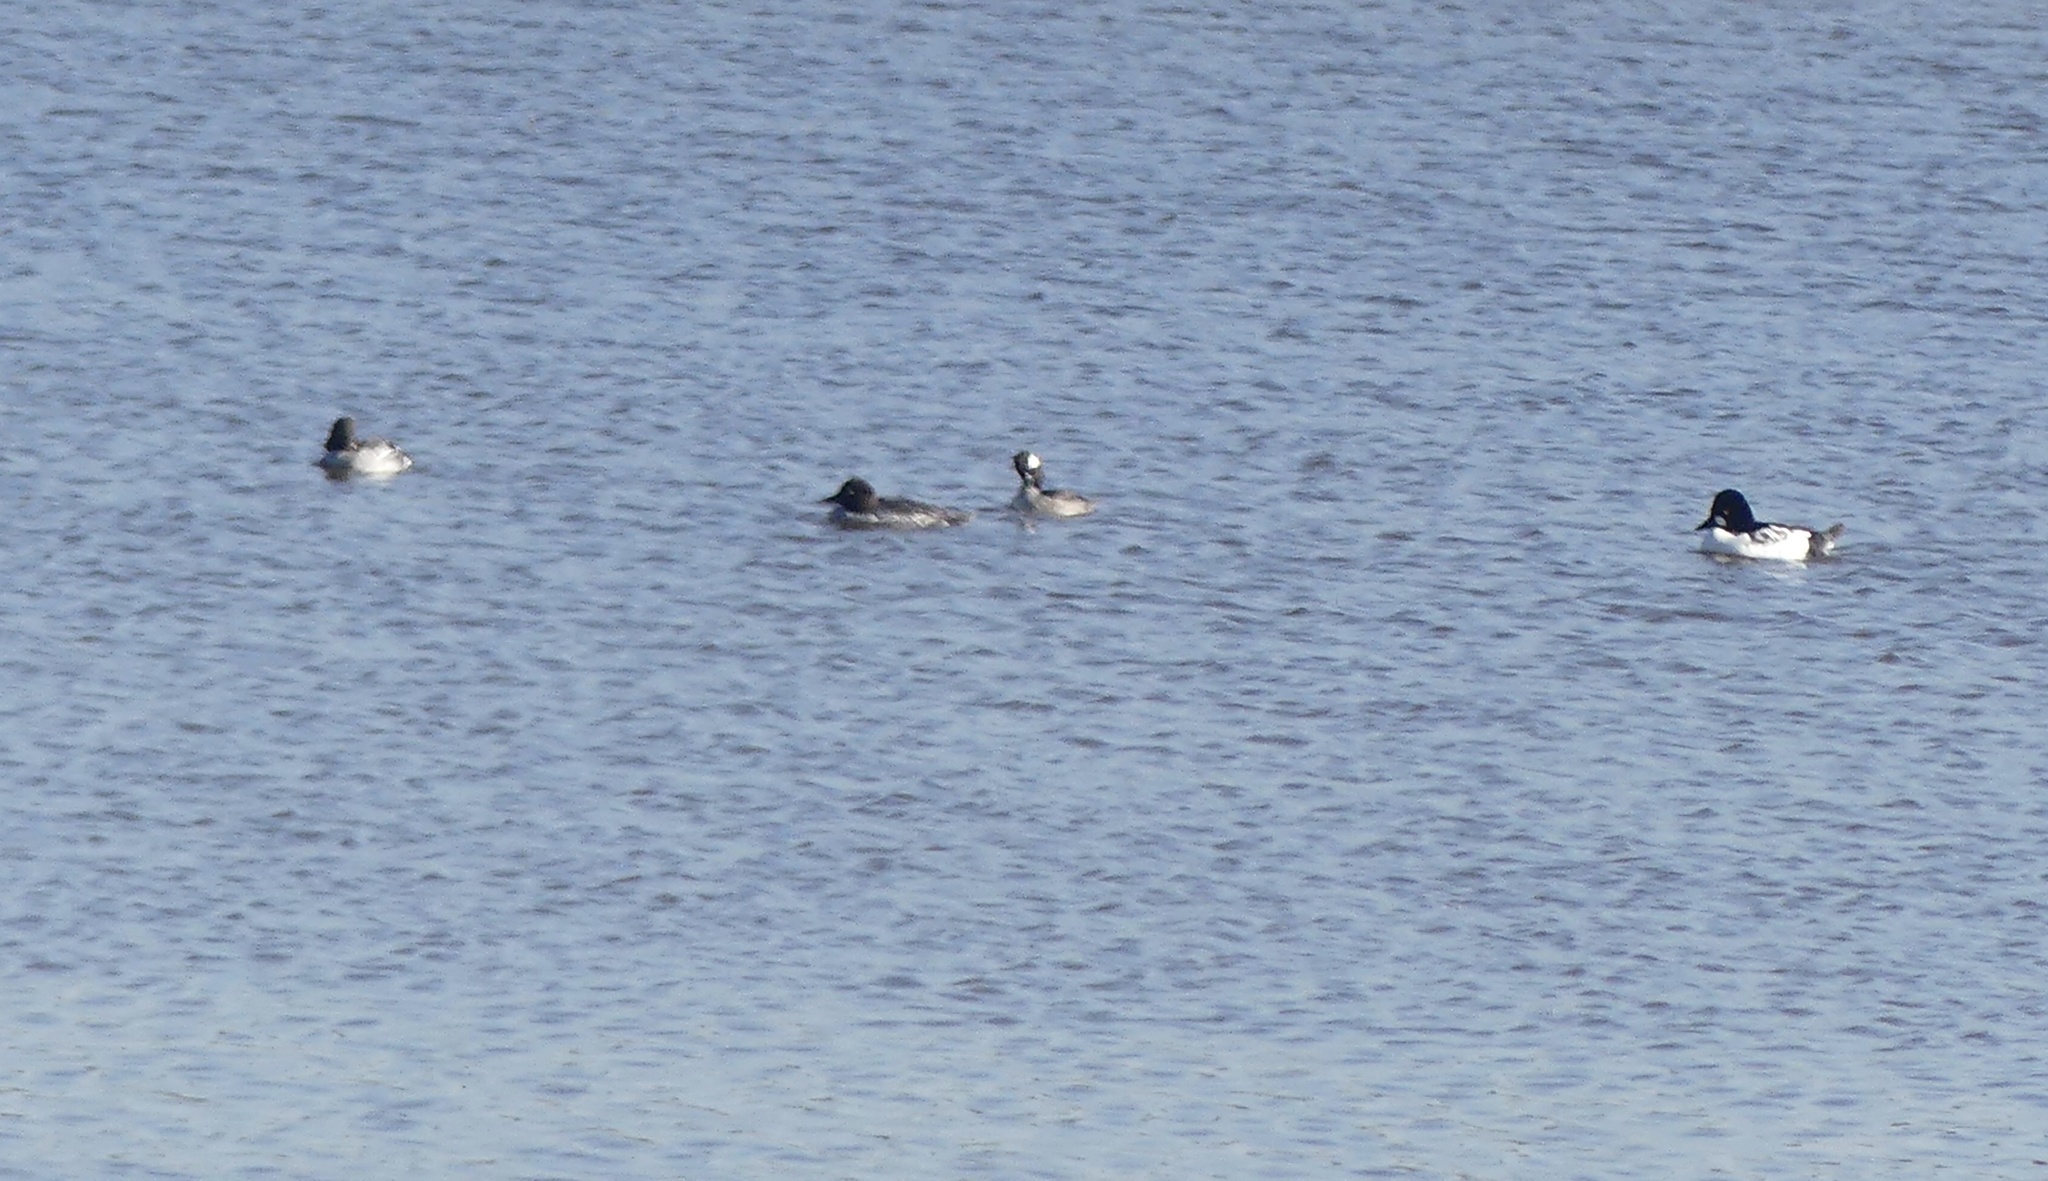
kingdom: Animalia
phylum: Chordata
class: Aves
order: Anseriformes
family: Anatidae
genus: Bucephala
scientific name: Bucephala clangula
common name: Common goldeneye
